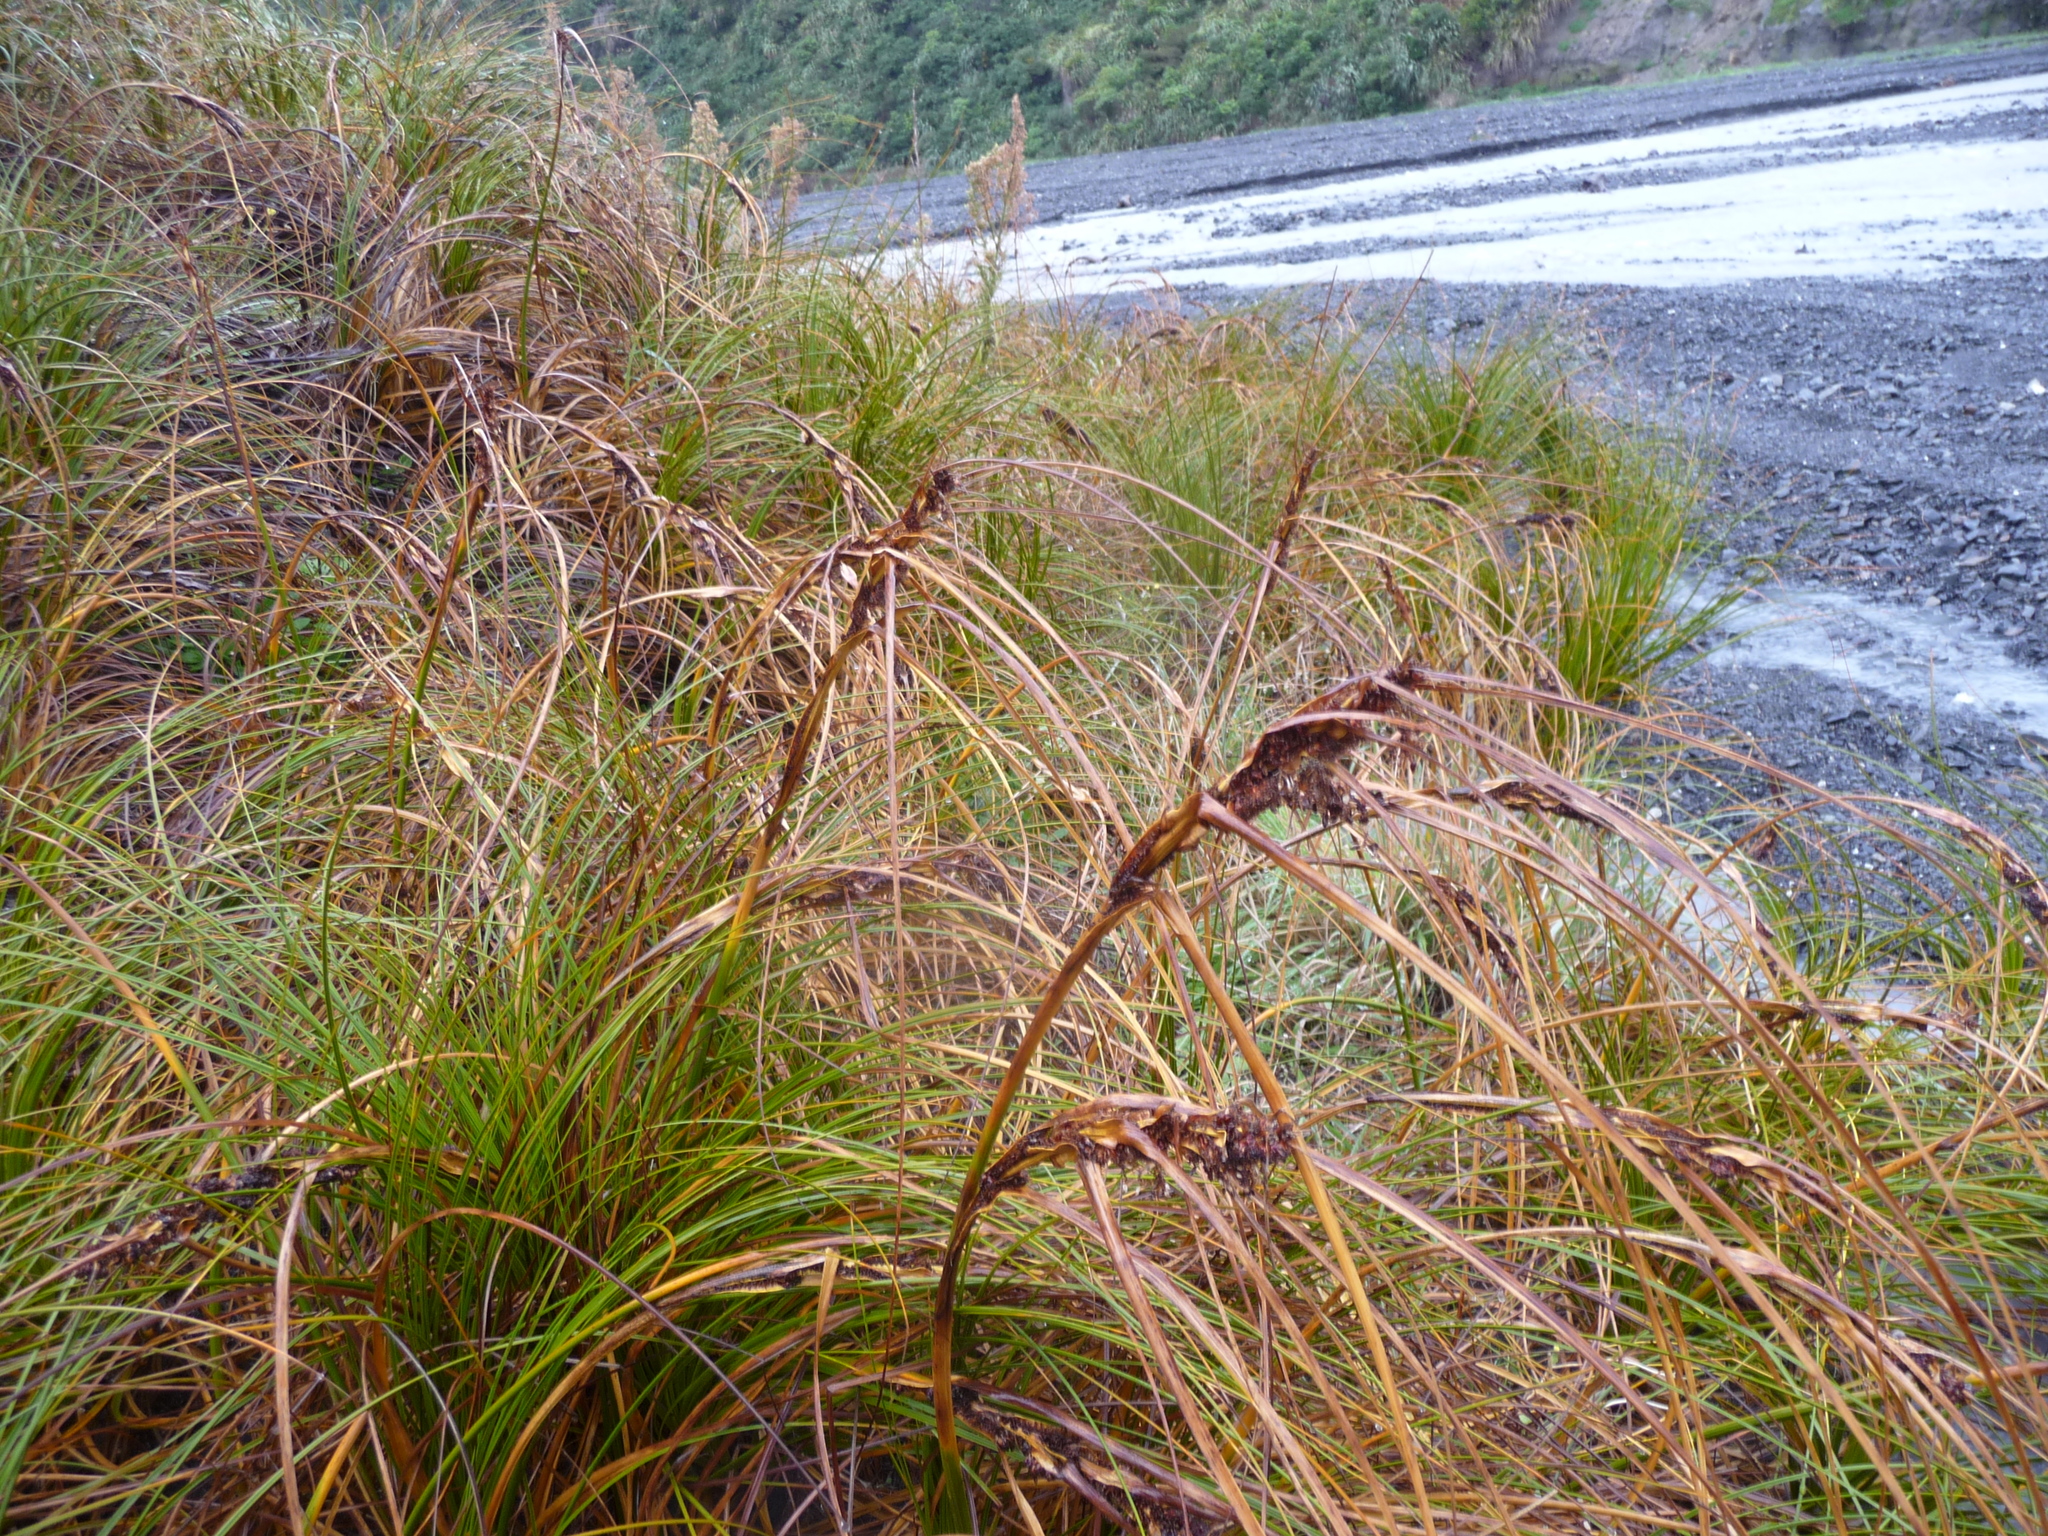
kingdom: Plantae
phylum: Tracheophyta
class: Liliopsida
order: Poales
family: Cyperaceae
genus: Ficinia
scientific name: Ficinia spiralis
